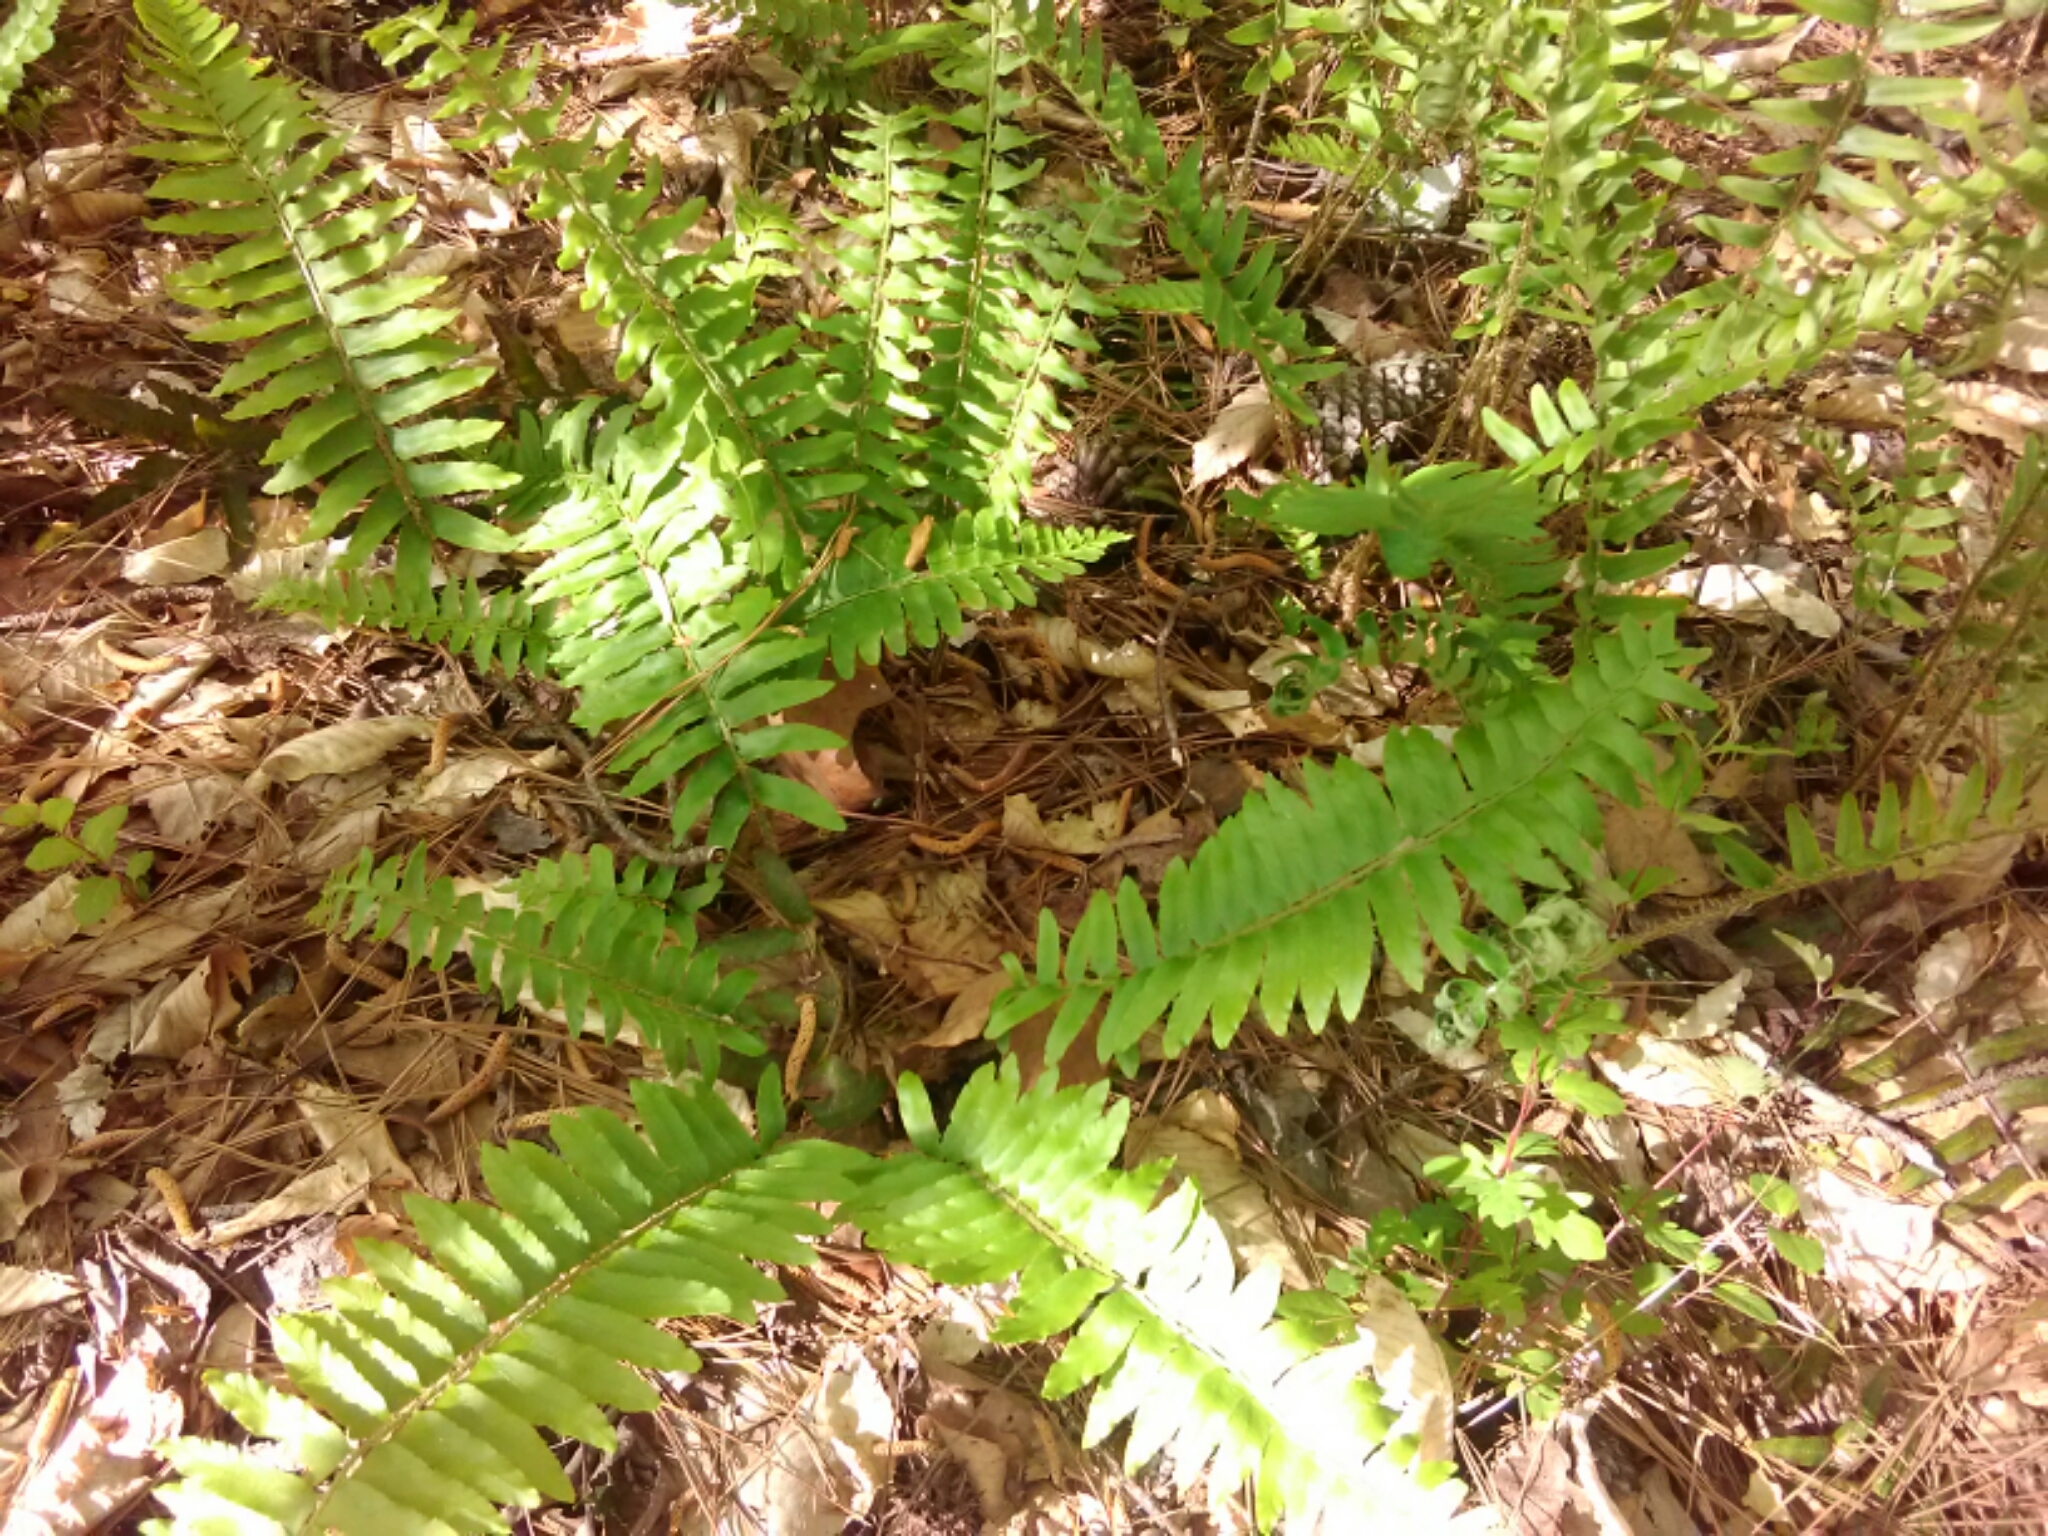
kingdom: Plantae
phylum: Tracheophyta
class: Polypodiopsida
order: Polypodiales
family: Dryopteridaceae
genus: Polystichum
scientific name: Polystichum acrostichoides
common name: Christmas fern
